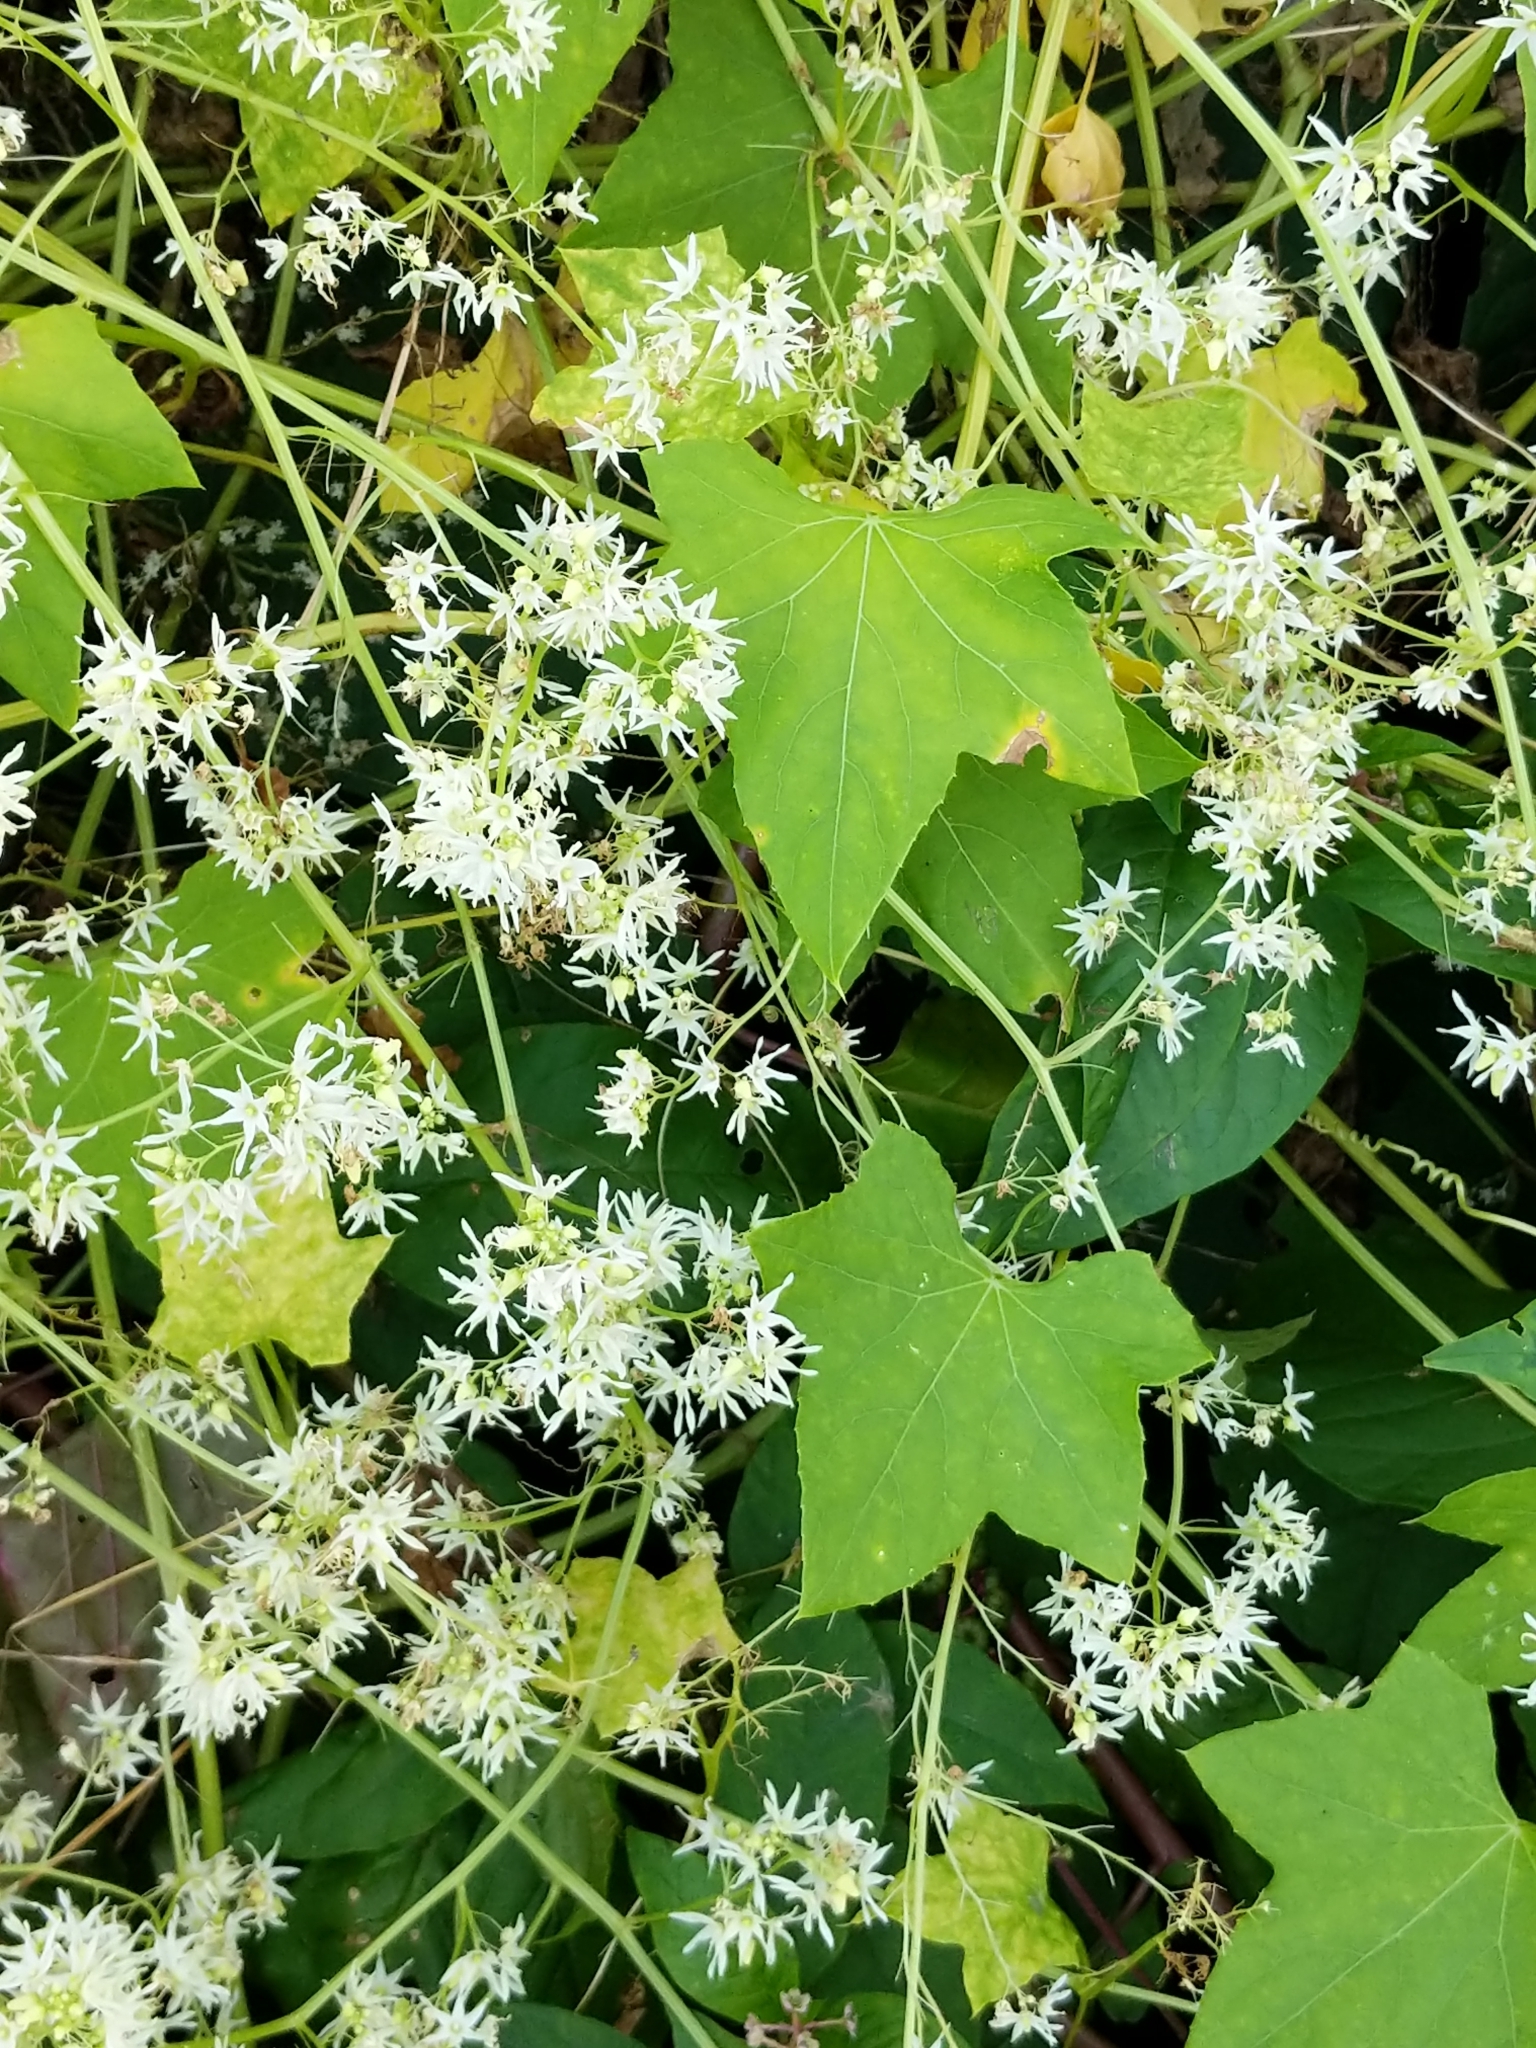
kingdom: Plantae
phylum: Tracheophyta
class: Magnoliopsida
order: Cucurbitales
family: Cucurbitaceae
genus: Echinocystis
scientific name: Echinocystis lobata
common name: Wild cucumber
